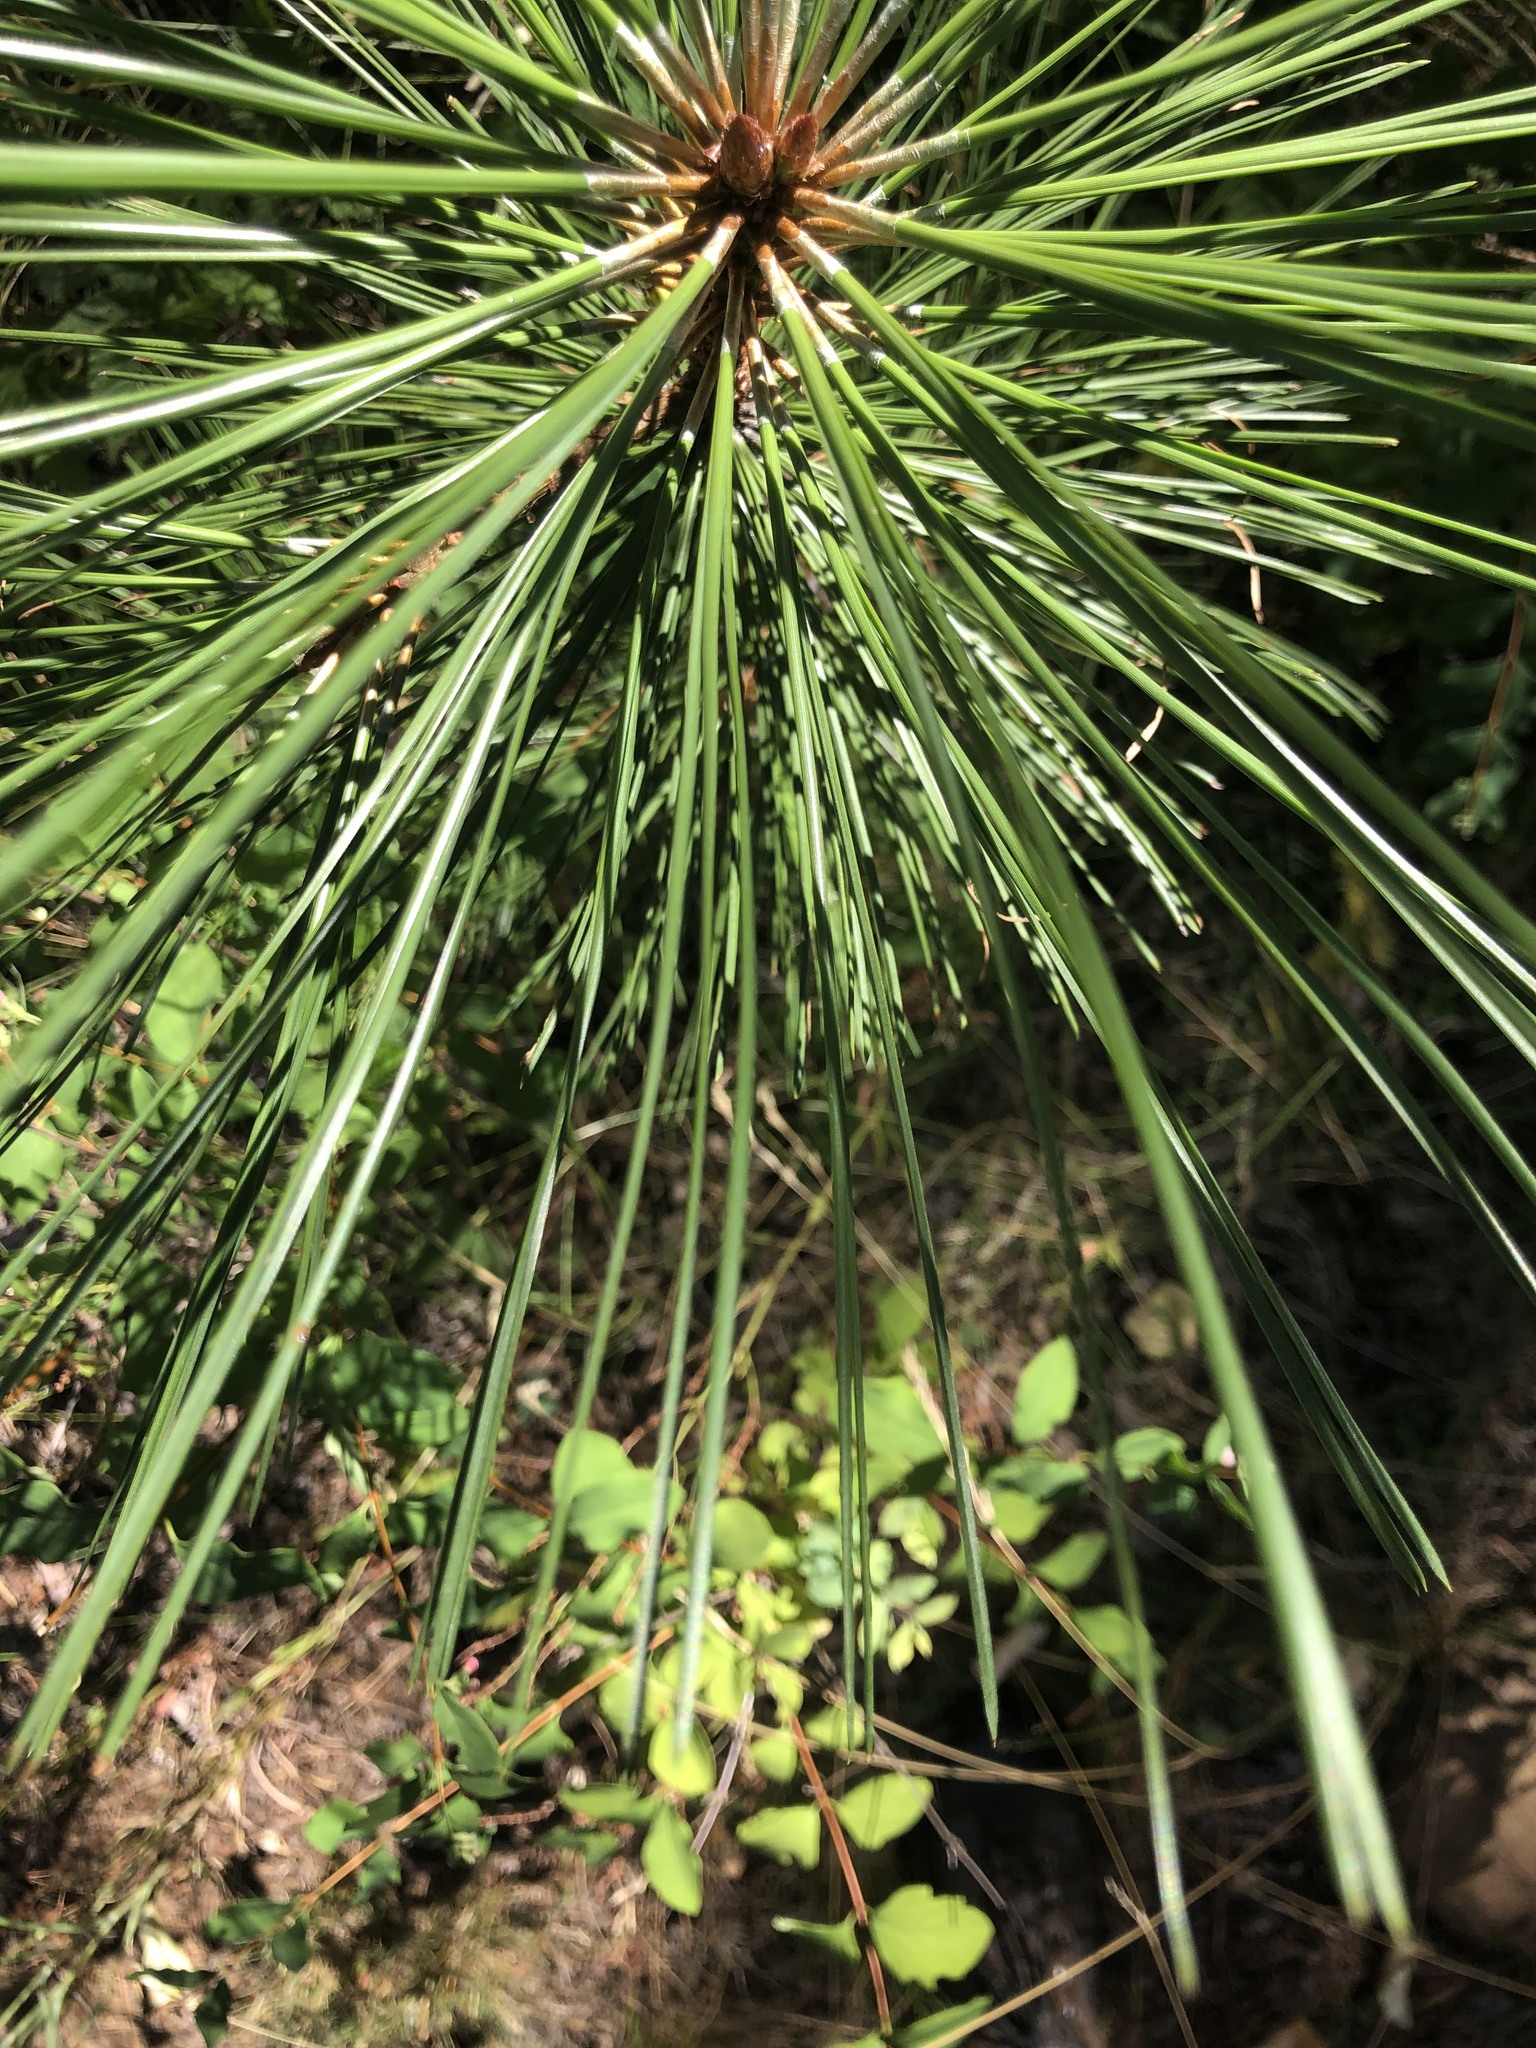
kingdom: Plantae
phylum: Tracheophyta
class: Pinopsida
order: Pinales
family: Pinaceae
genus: Pinus
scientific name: Pinus ponderosa
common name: Western yellow-pine
